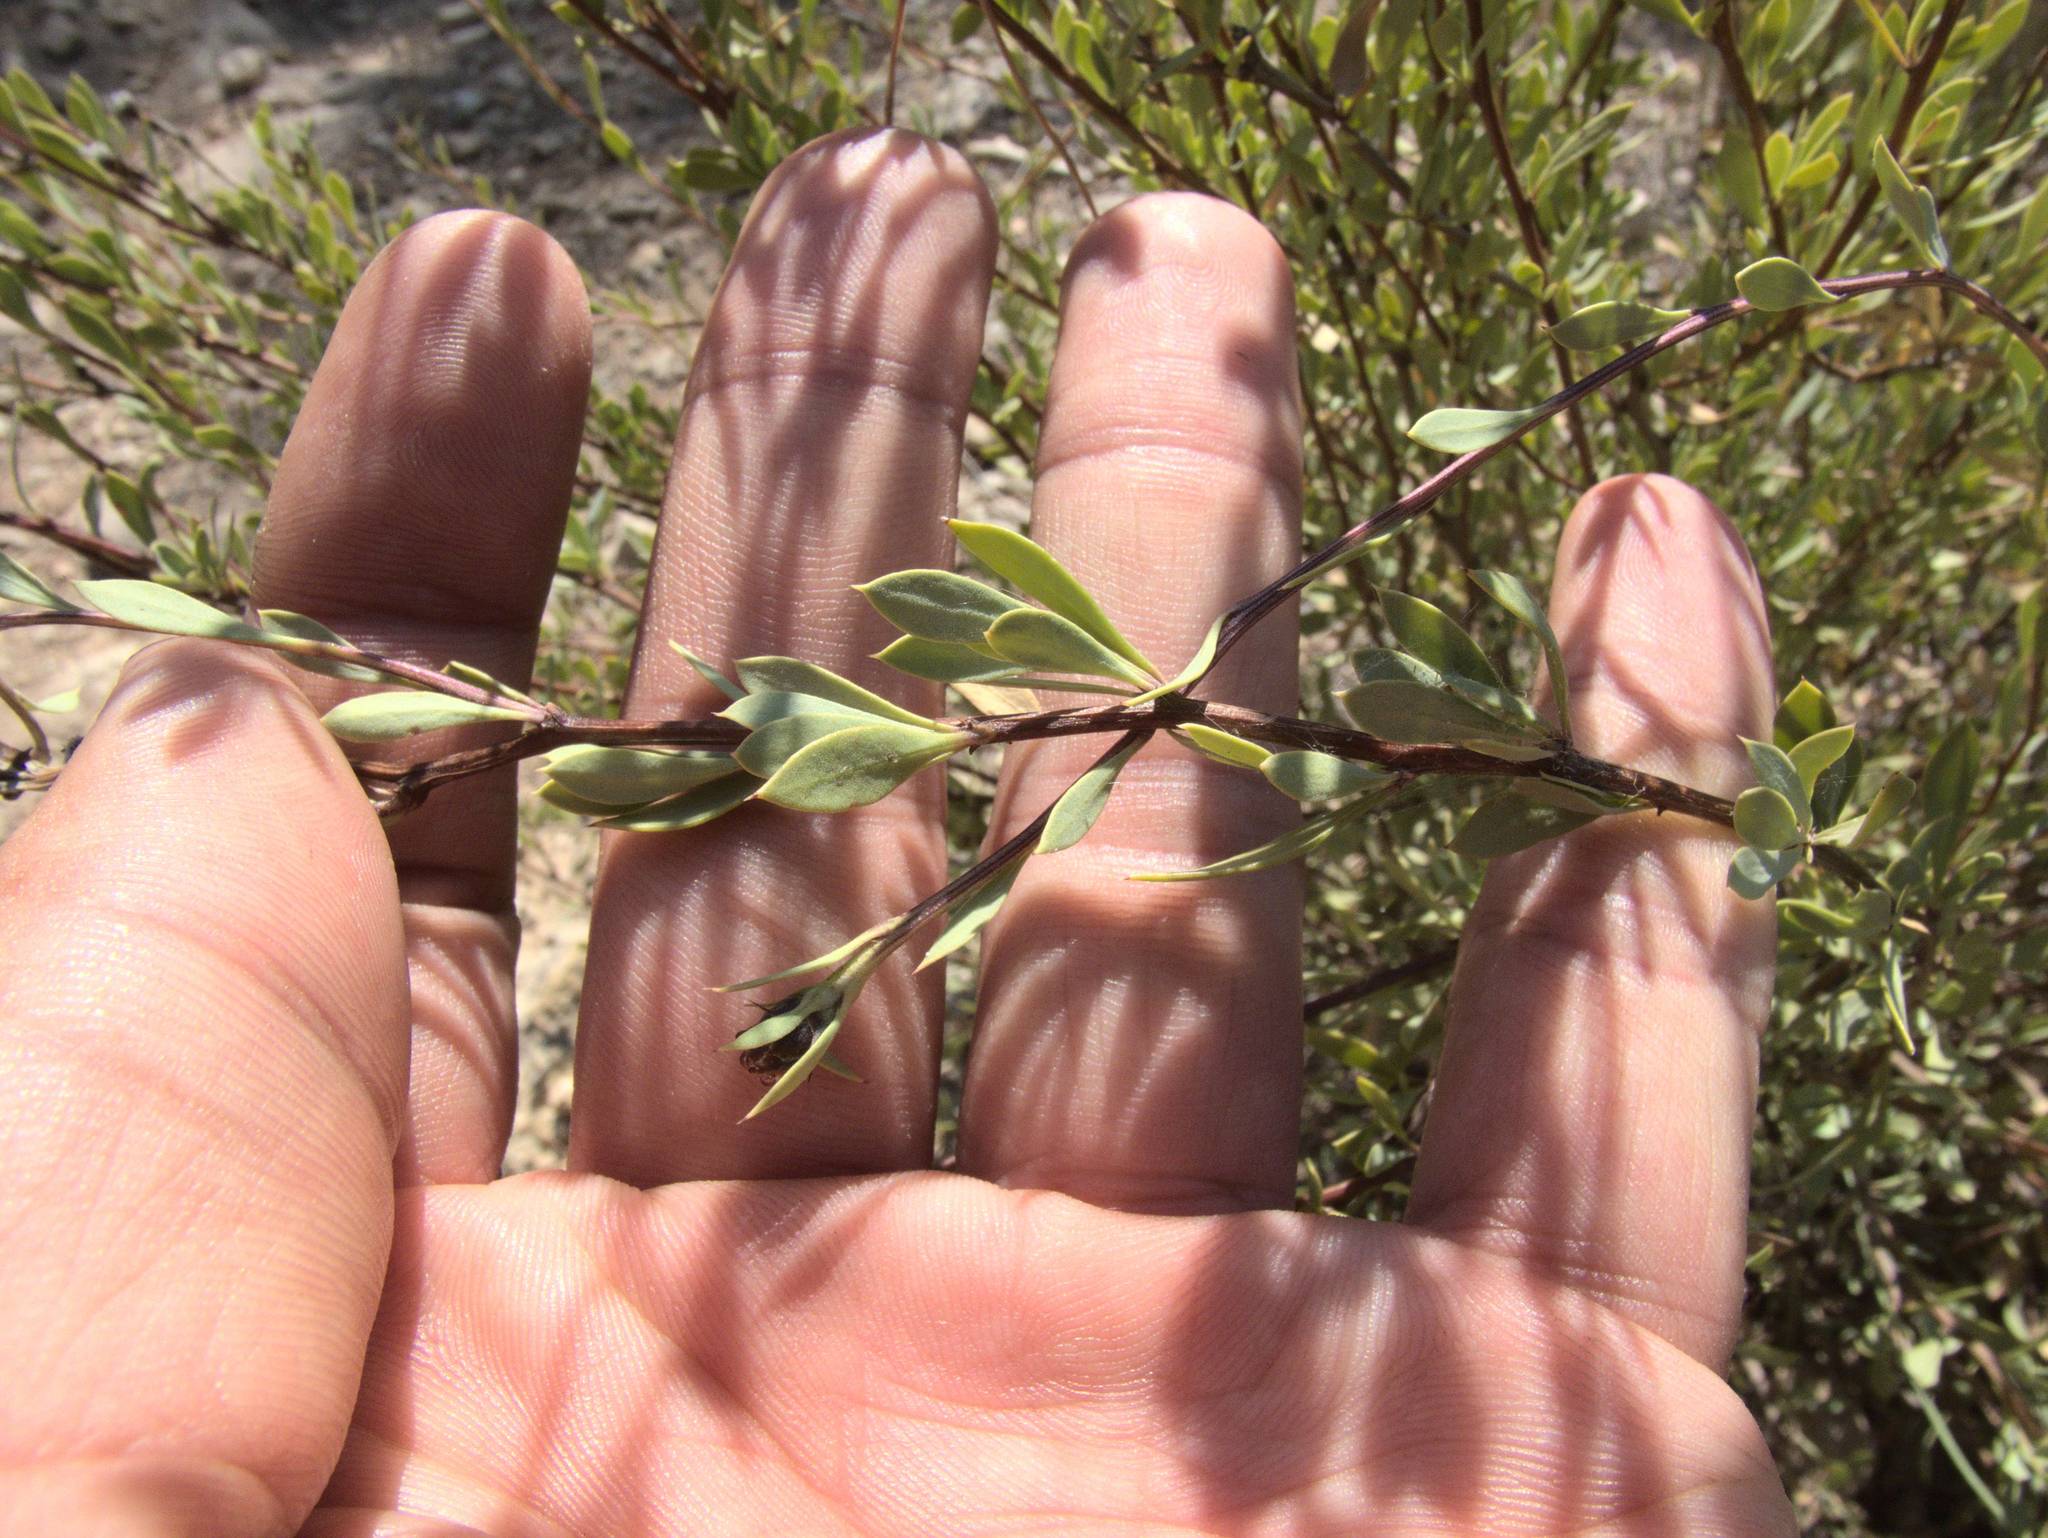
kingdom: Plantae
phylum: Tracheophyta
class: Magnoliopsida
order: Lamiales
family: Plantaginaceae
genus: Globularia
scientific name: Globularia alypum
